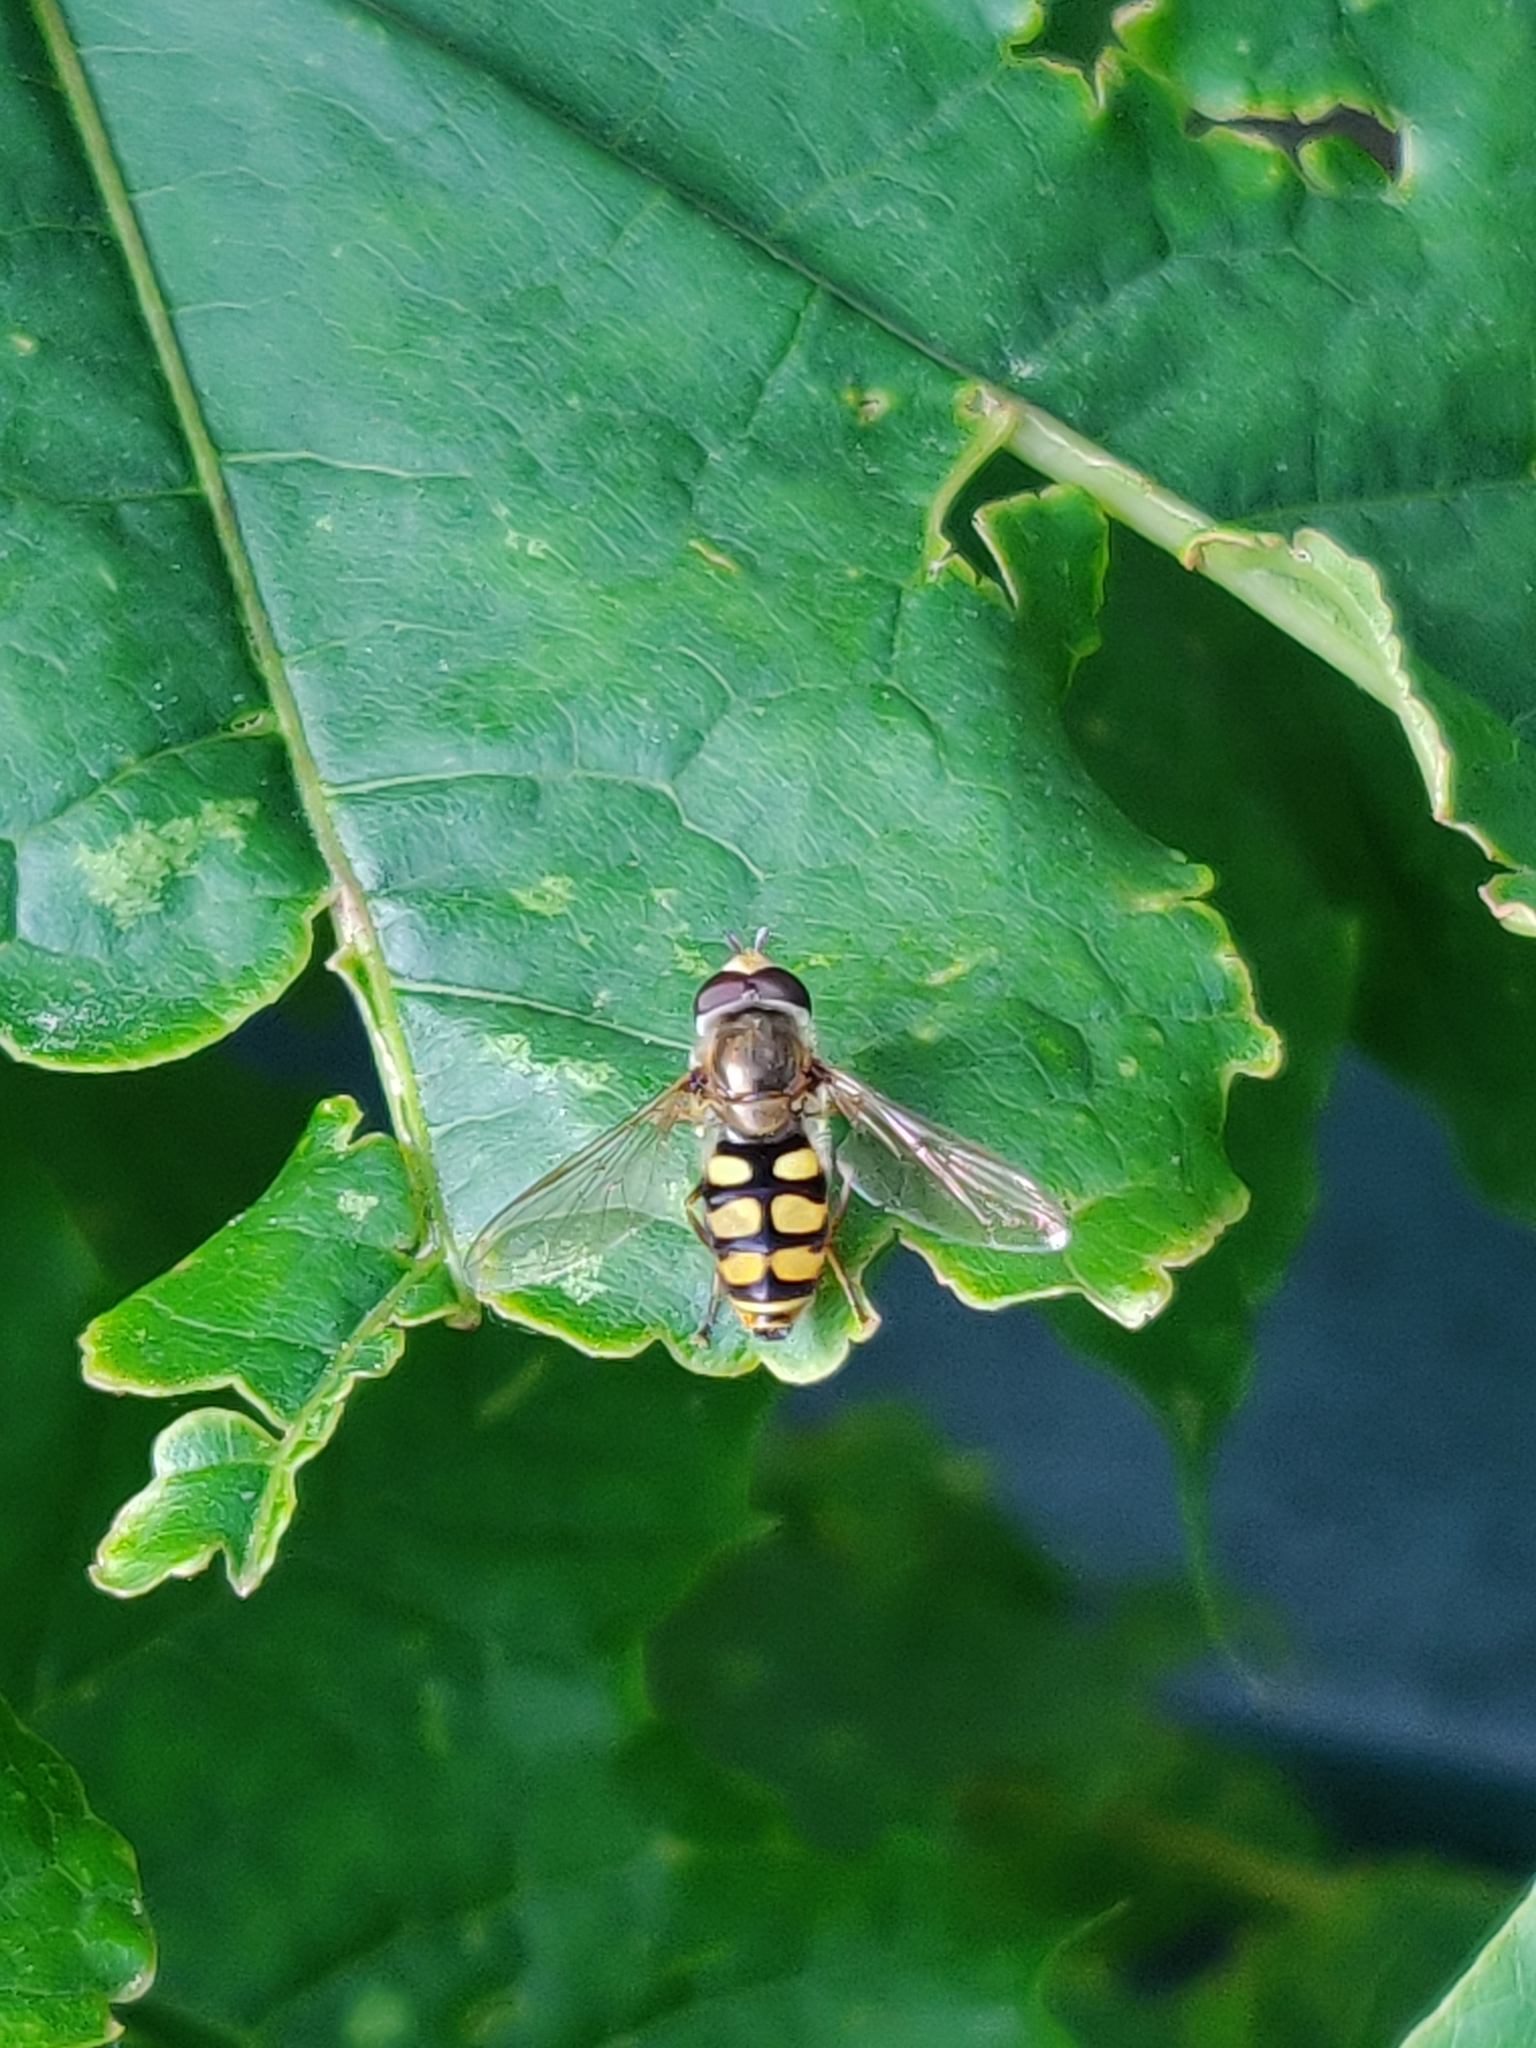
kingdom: Animalia
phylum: Arthropoda
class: Insecta
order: Diptera
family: Syrphidae
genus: Eupeodes
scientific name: Eupeodes corollae
